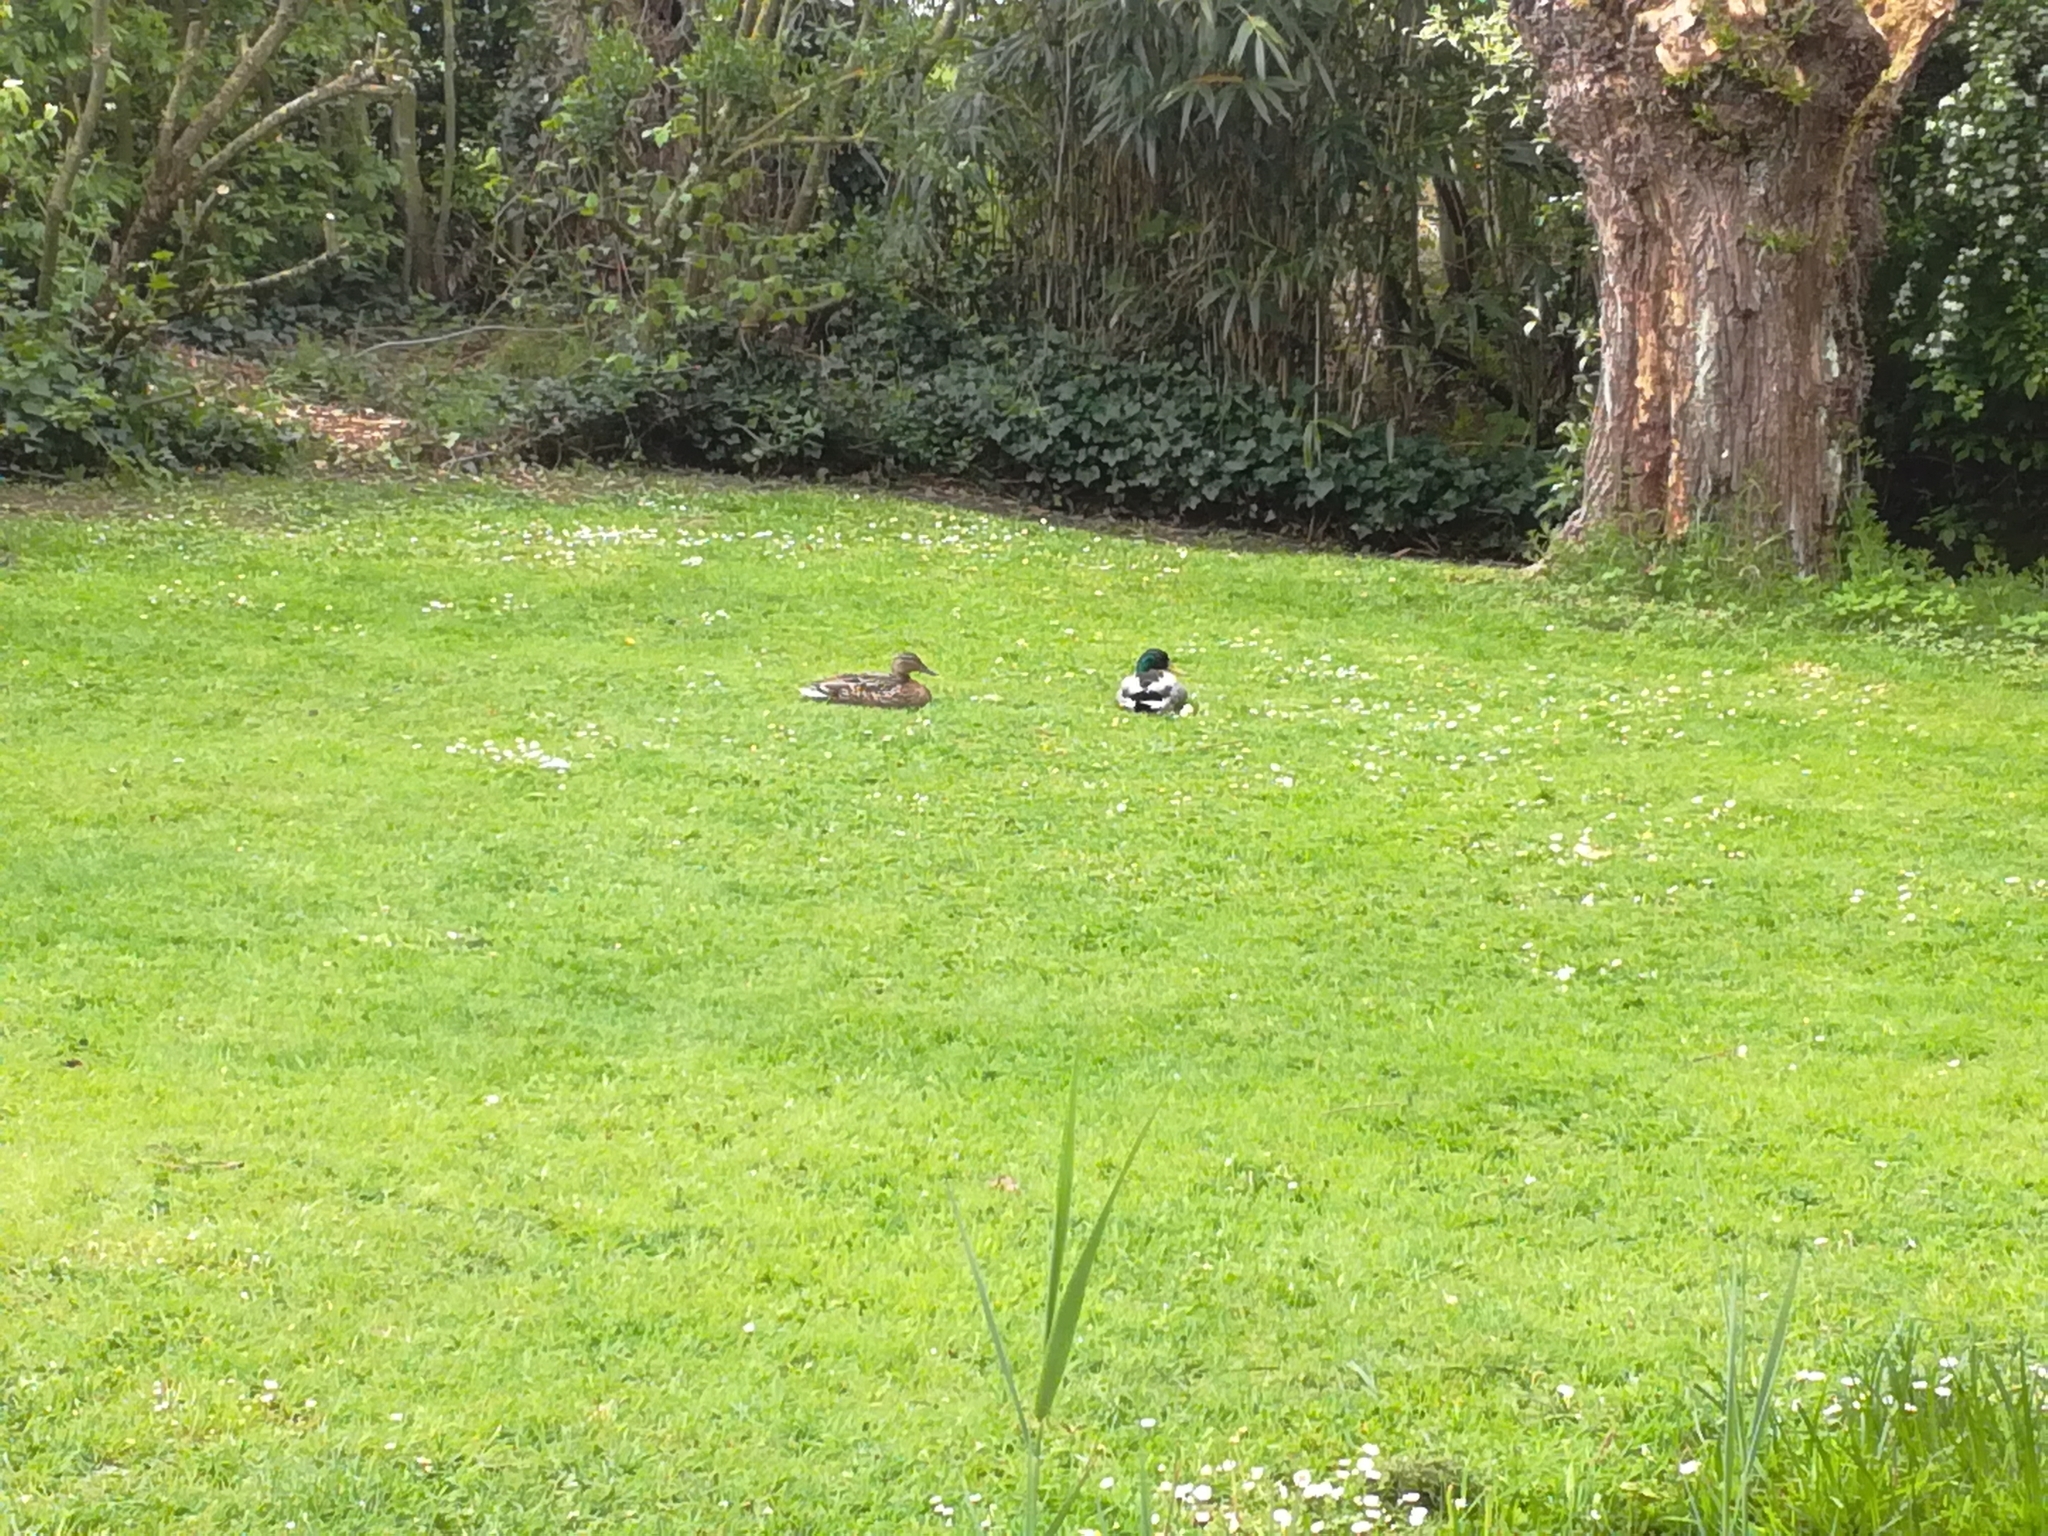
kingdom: Animalia
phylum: Chordata
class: Aves
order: Anseriformes
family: Anatidae
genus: Anas
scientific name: Anas platyrhynchos
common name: Mallard
